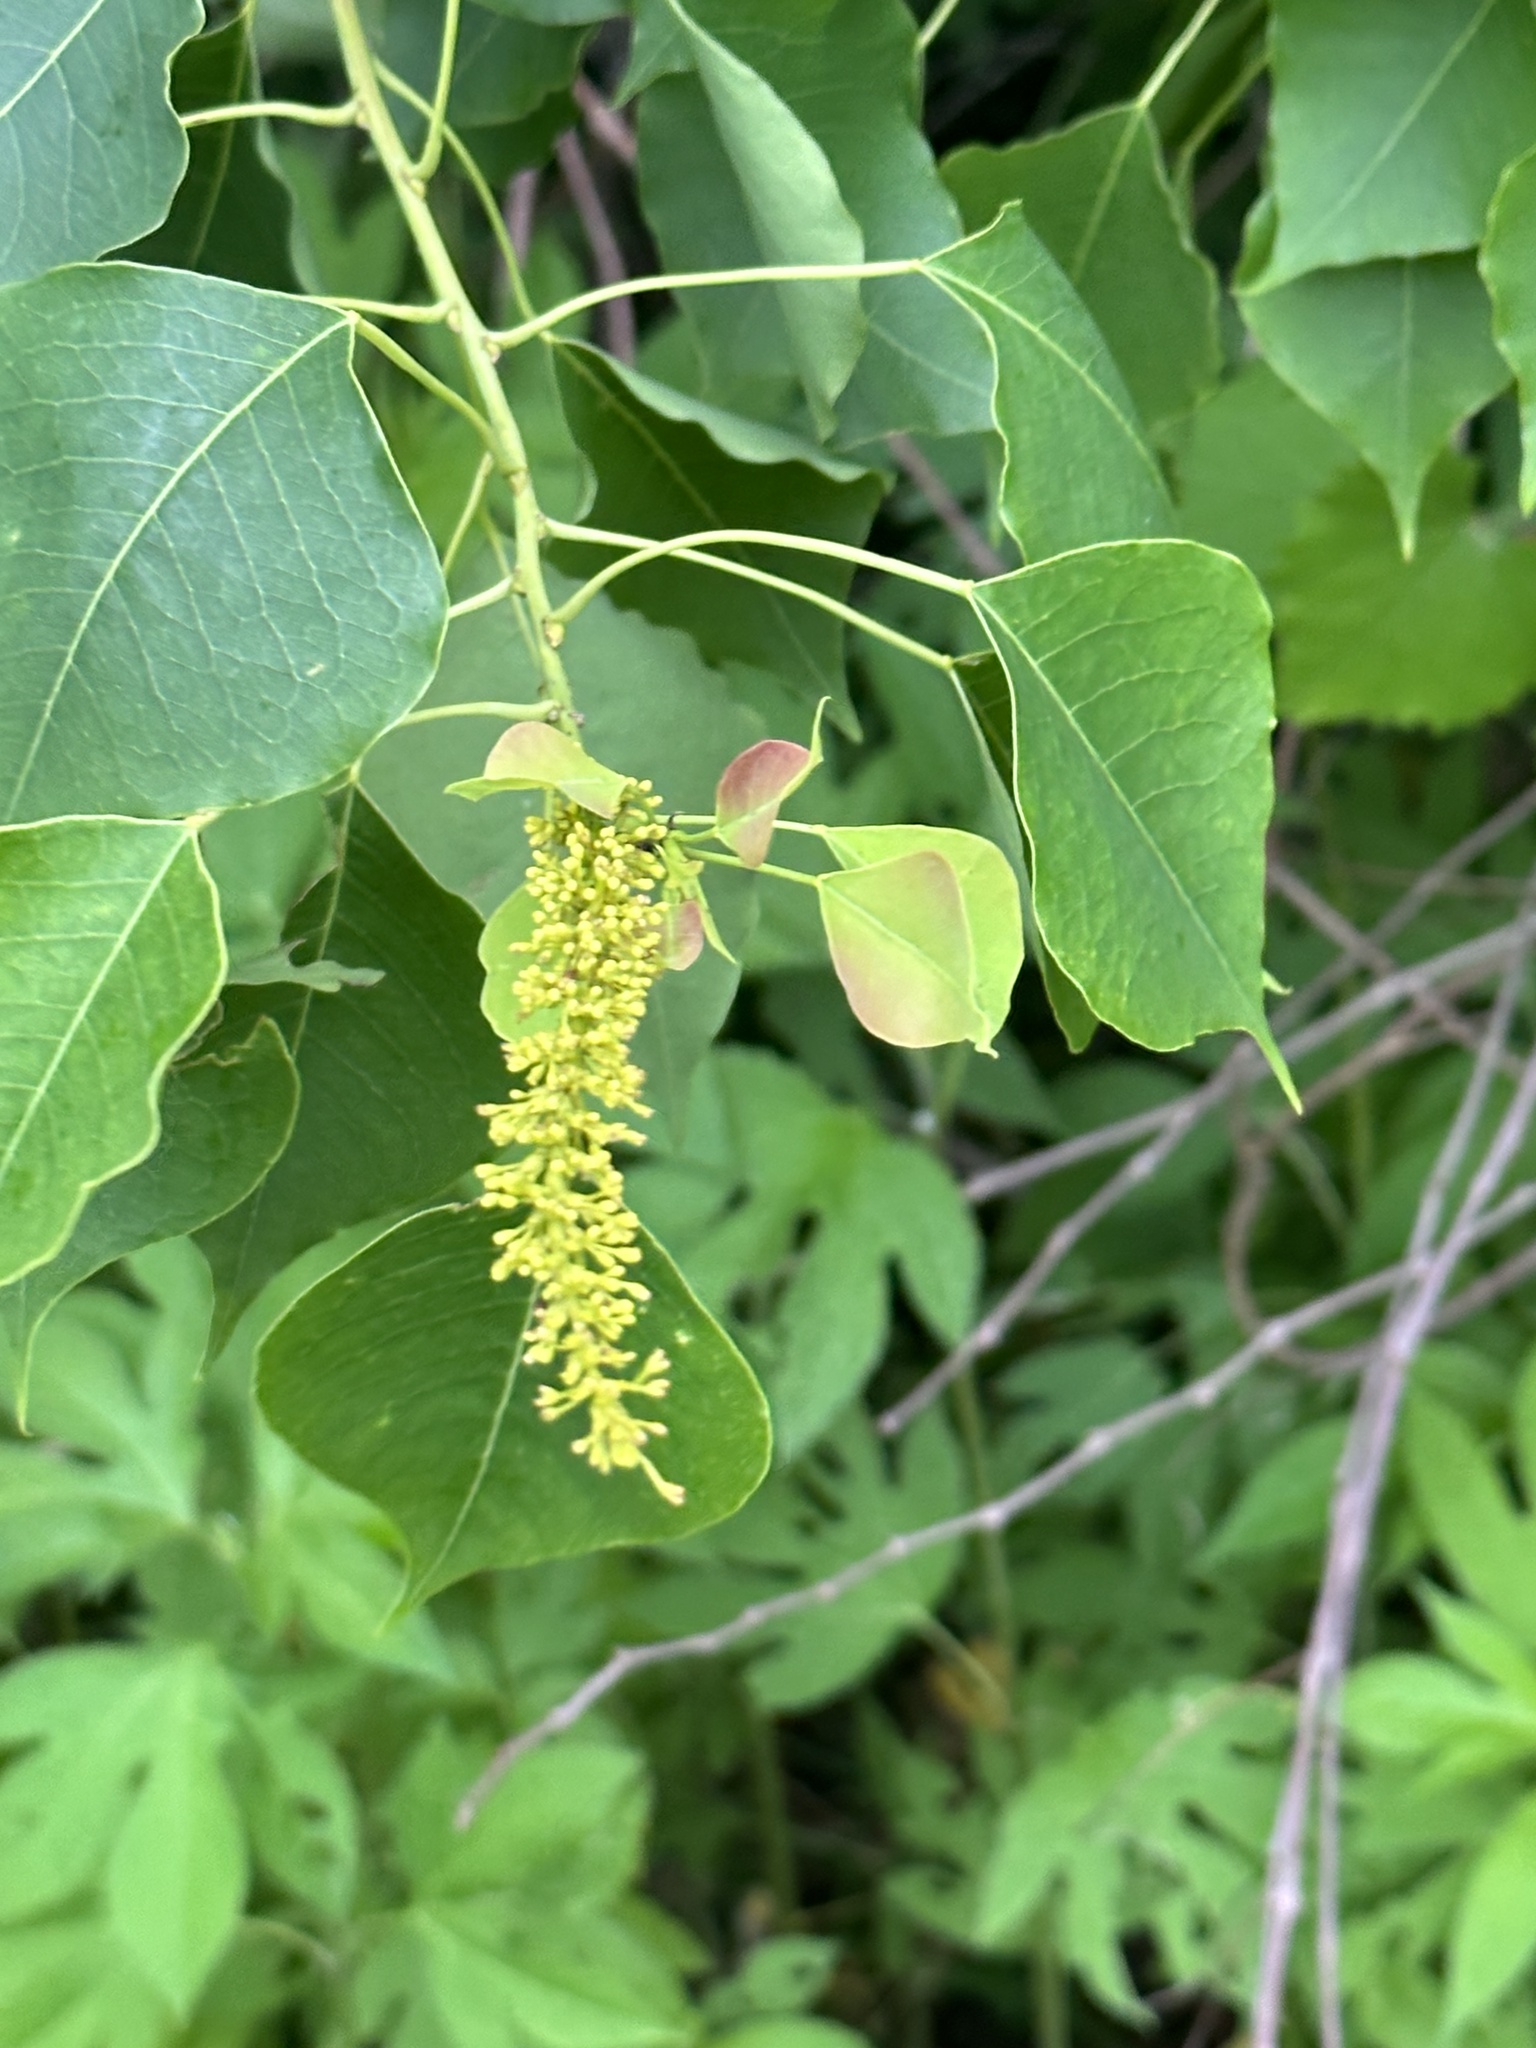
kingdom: Plantae
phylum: Tracheophyta
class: Magnoliopsida
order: Malpighiales
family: Euphorbiaceae
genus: Triadica
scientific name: Triadica sebifera
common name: Chinese tallow
